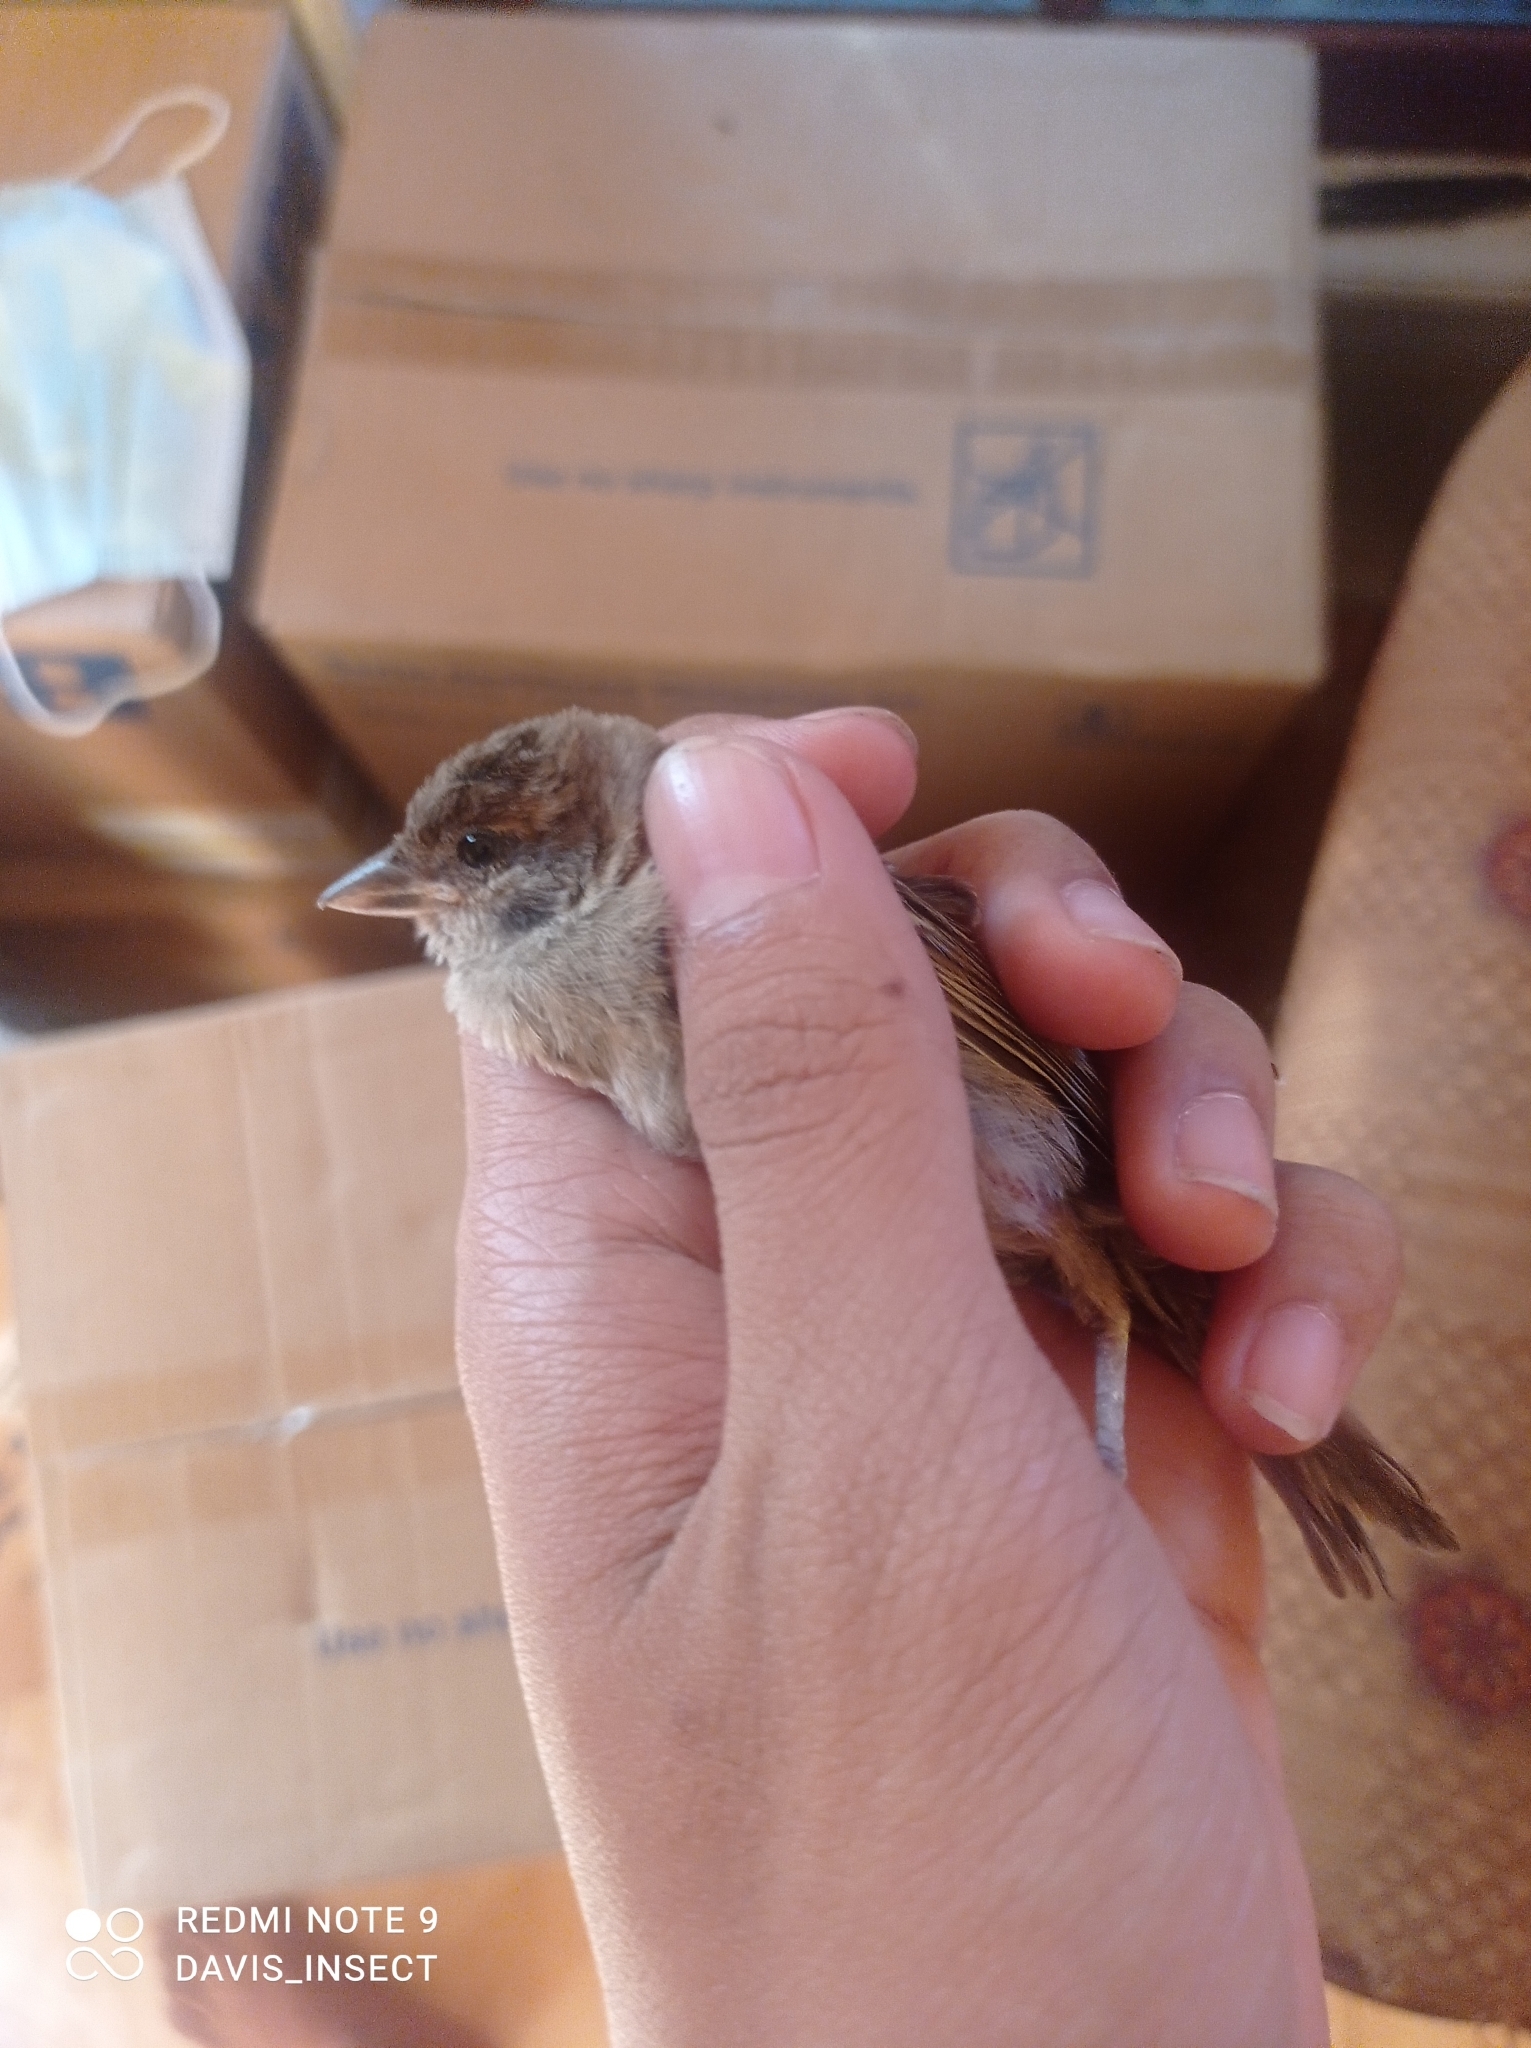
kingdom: Animalia
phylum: Chordata
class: Aves
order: Passeriformes
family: Passeridae
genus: Passer
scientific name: Passer montanus
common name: Eurasian tree sparrow
